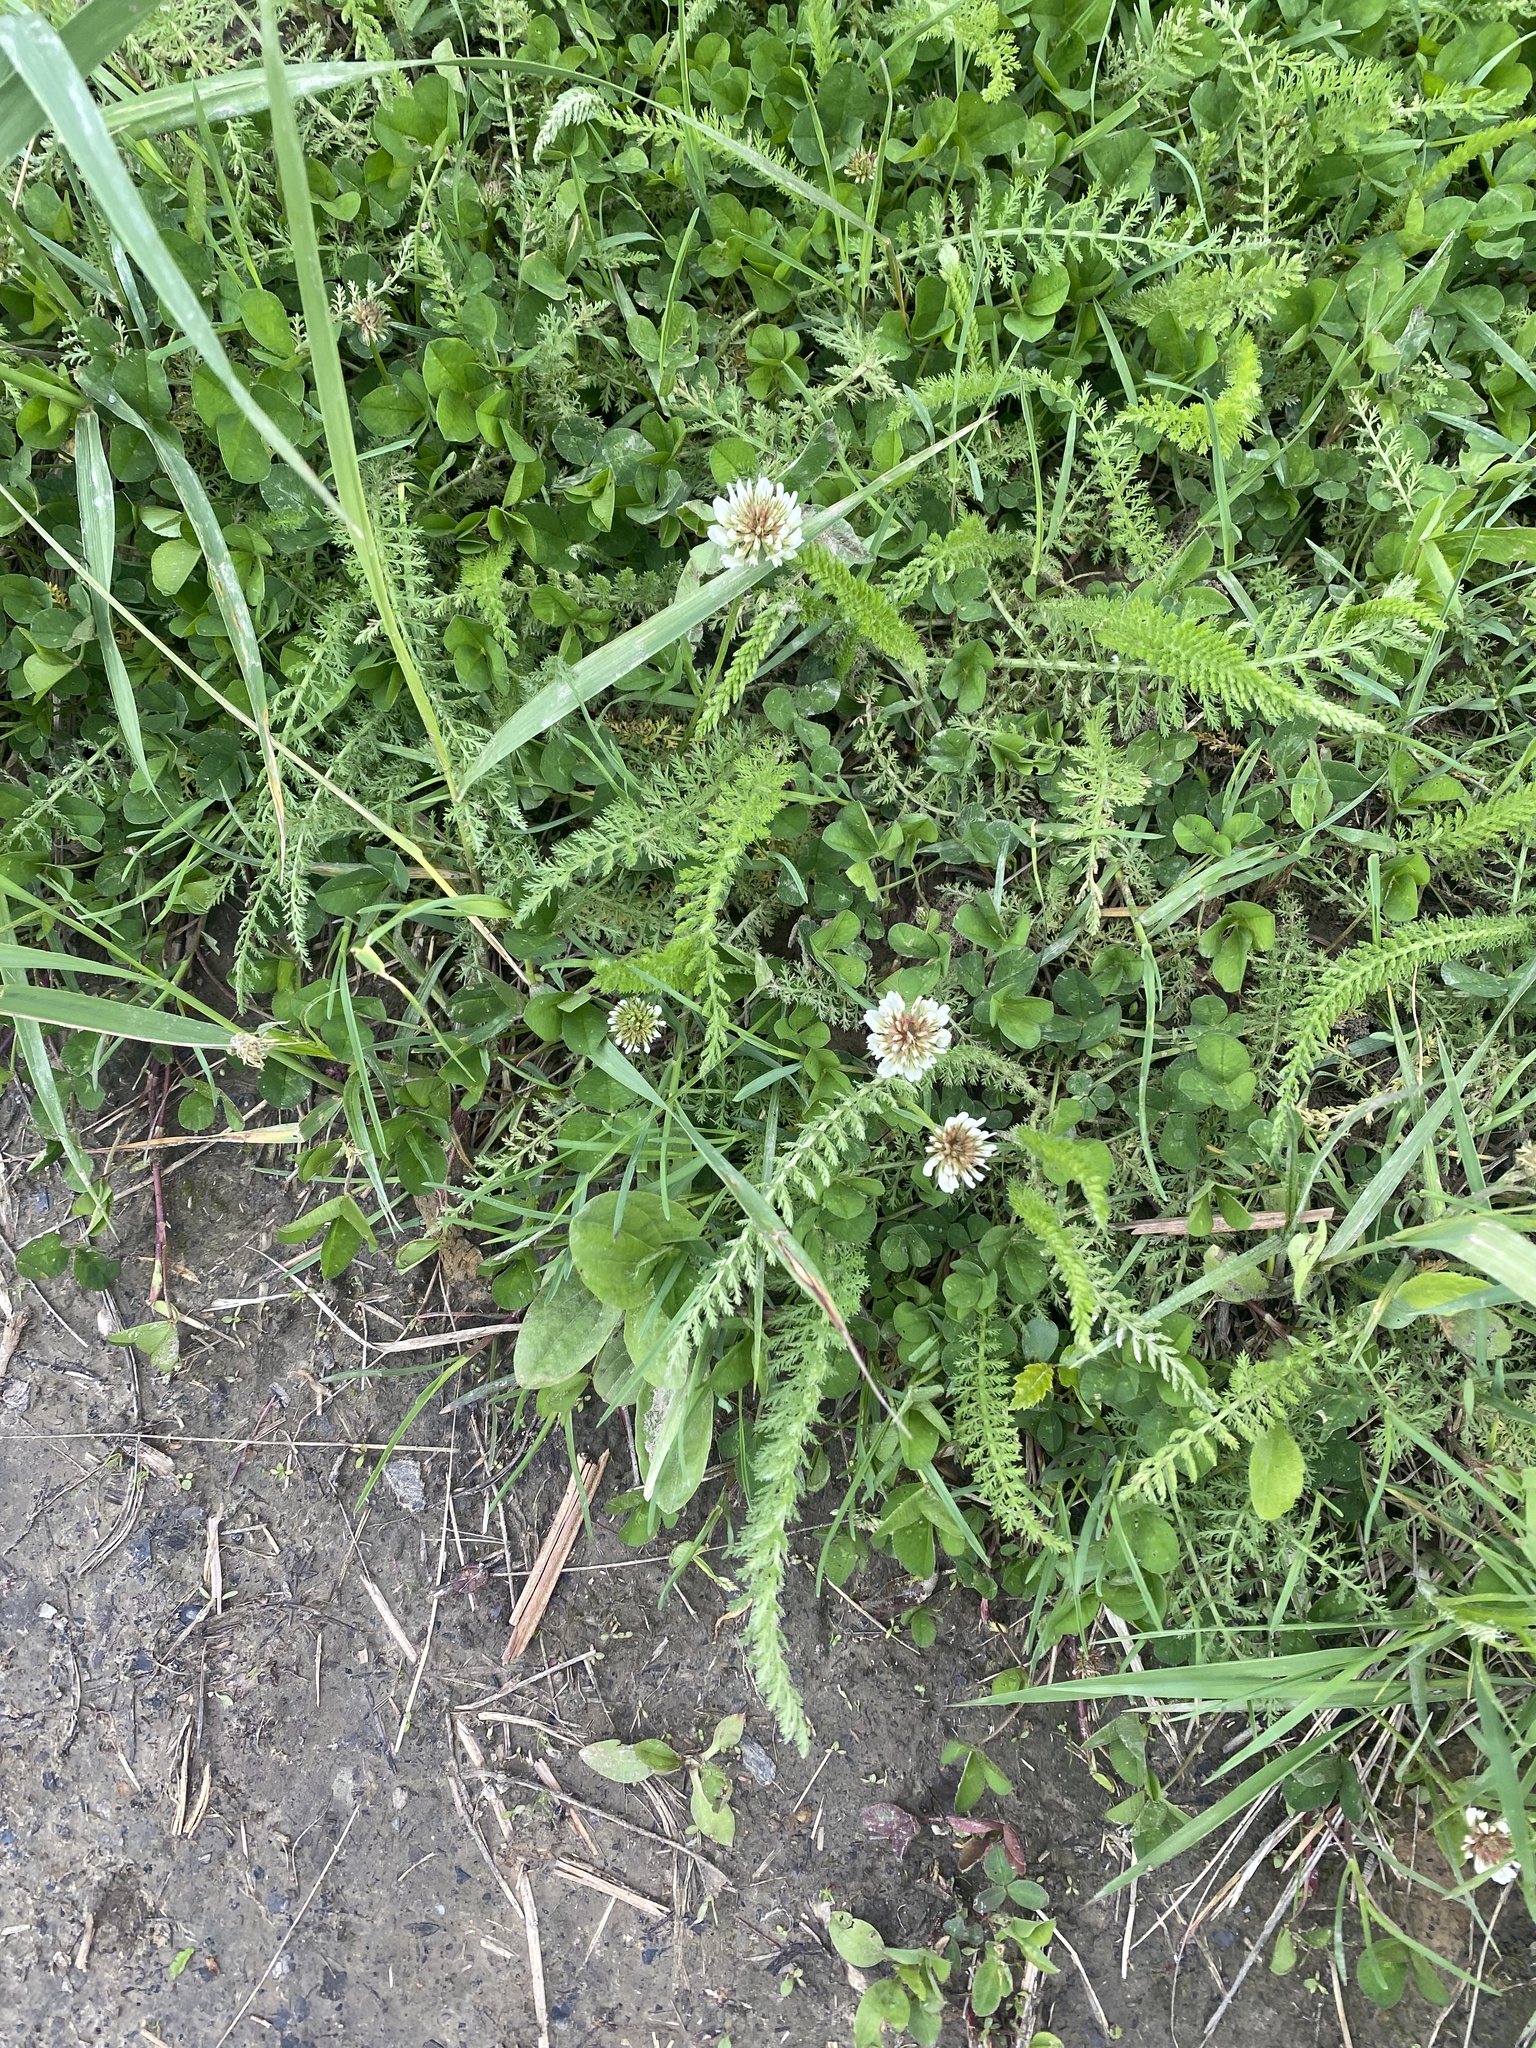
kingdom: Plantae
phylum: Tracheophyta
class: Magnoliopsida
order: Fabales
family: Fabaceae
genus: Trifolium
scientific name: Trifolium repens
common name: White clover
